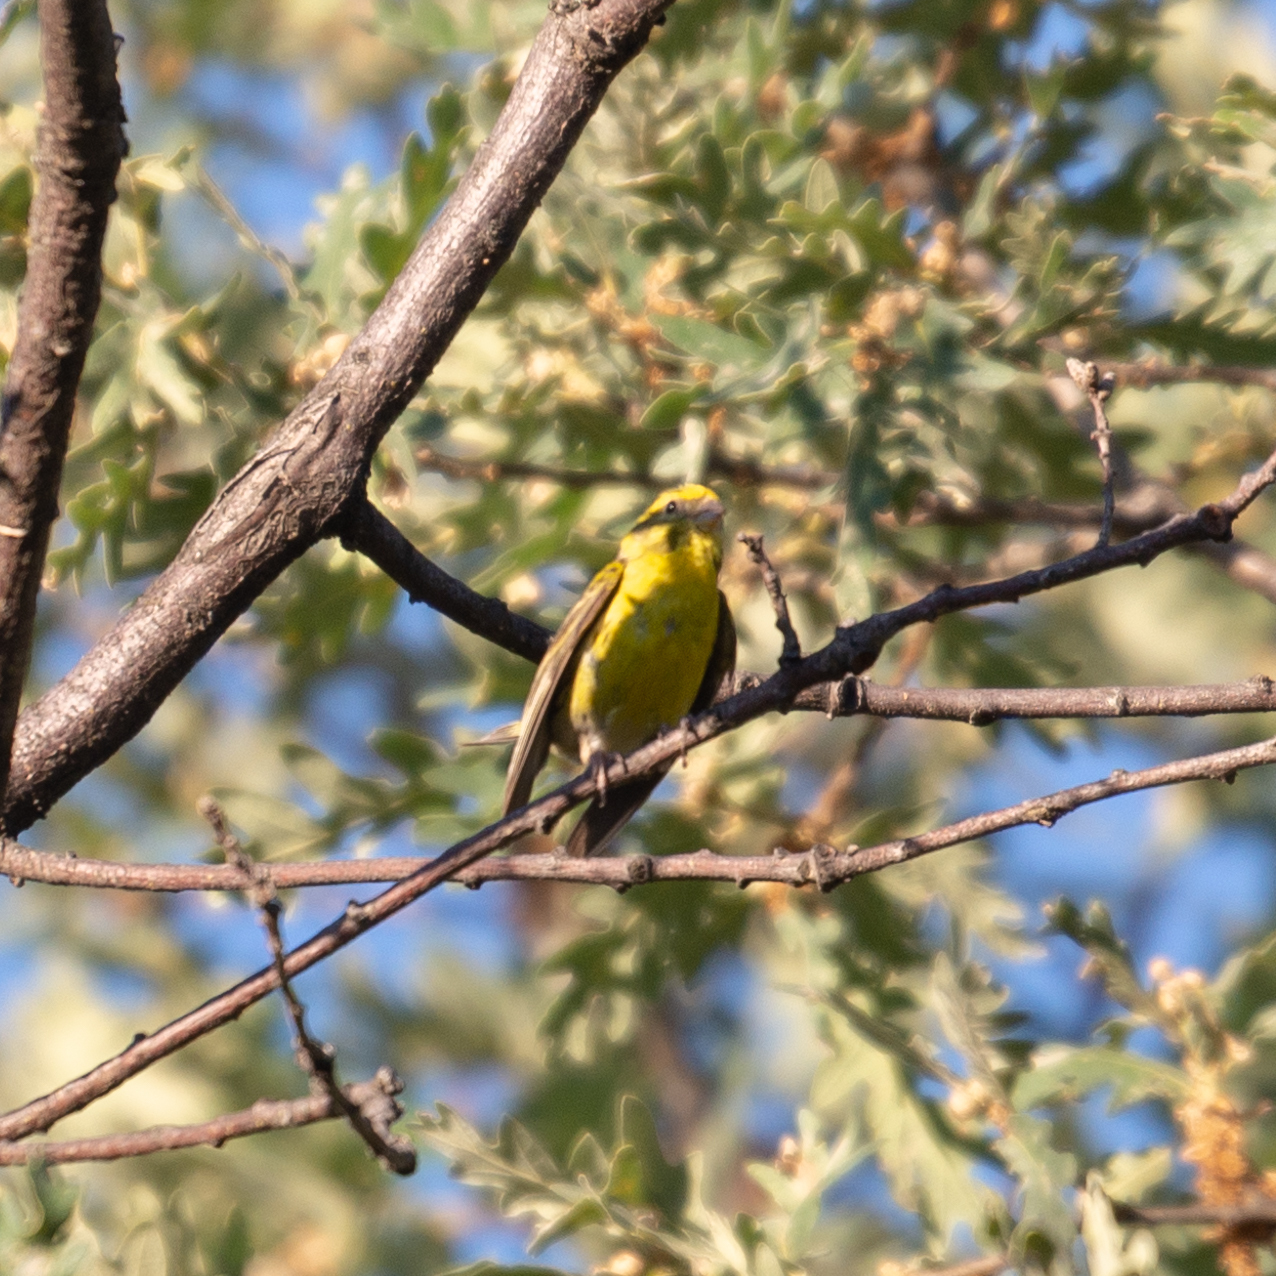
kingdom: Animalia
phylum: Chordata
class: Aves
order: Passeriformes
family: Fringillidae
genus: Serinus
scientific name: Serinus serinus
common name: European serin
